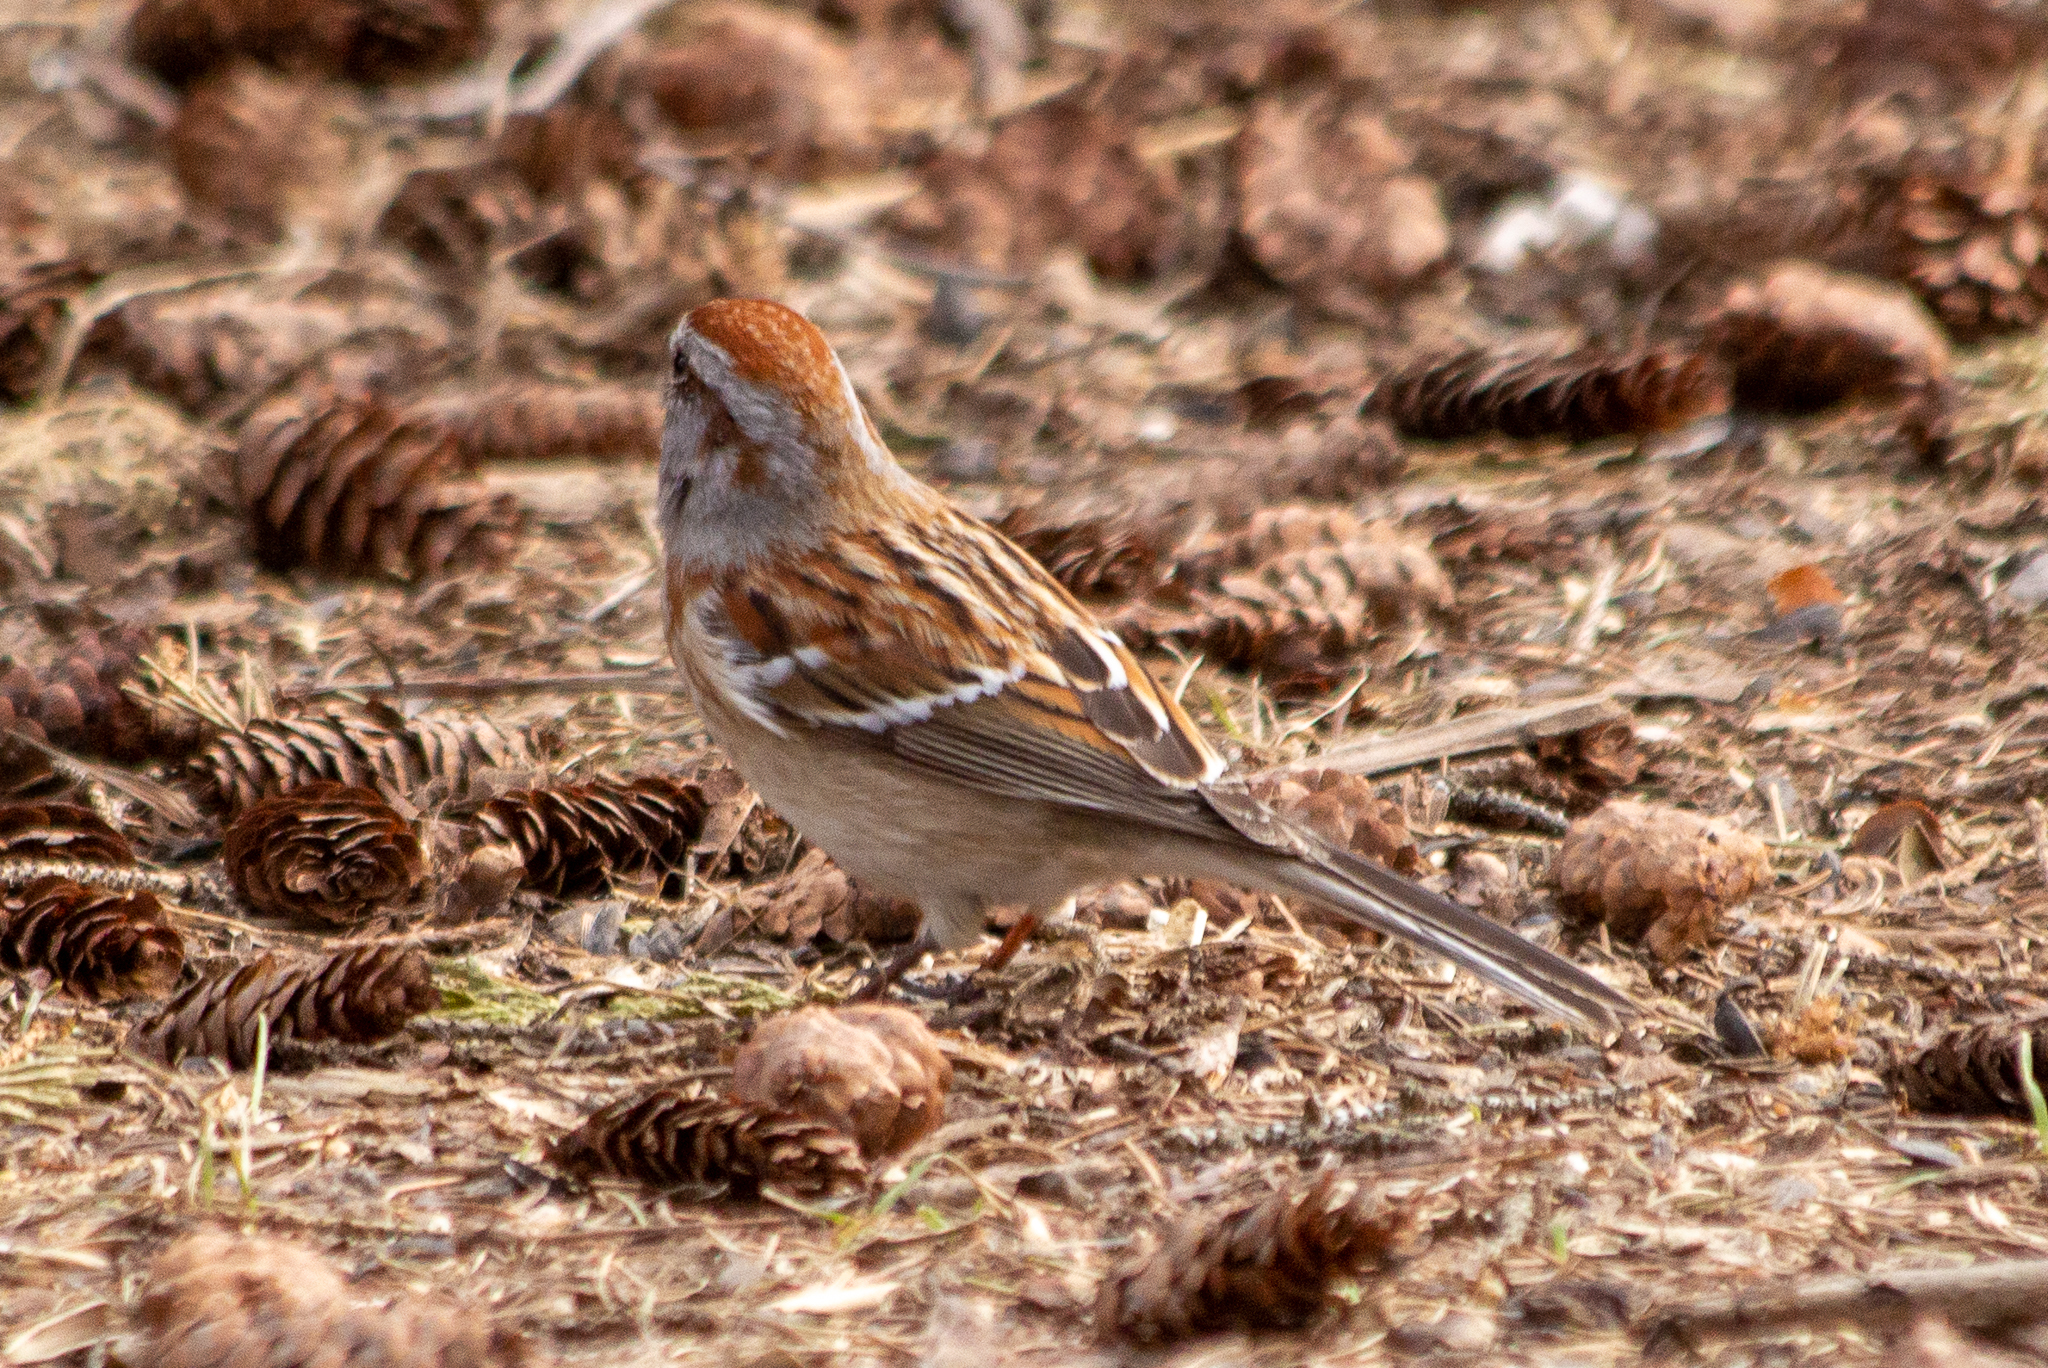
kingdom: Animalia
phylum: Chordata
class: Aves
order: Passeriformes
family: Passerellidae
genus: Spizelloides
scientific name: Spizelloides arborea
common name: American tree sparrow
